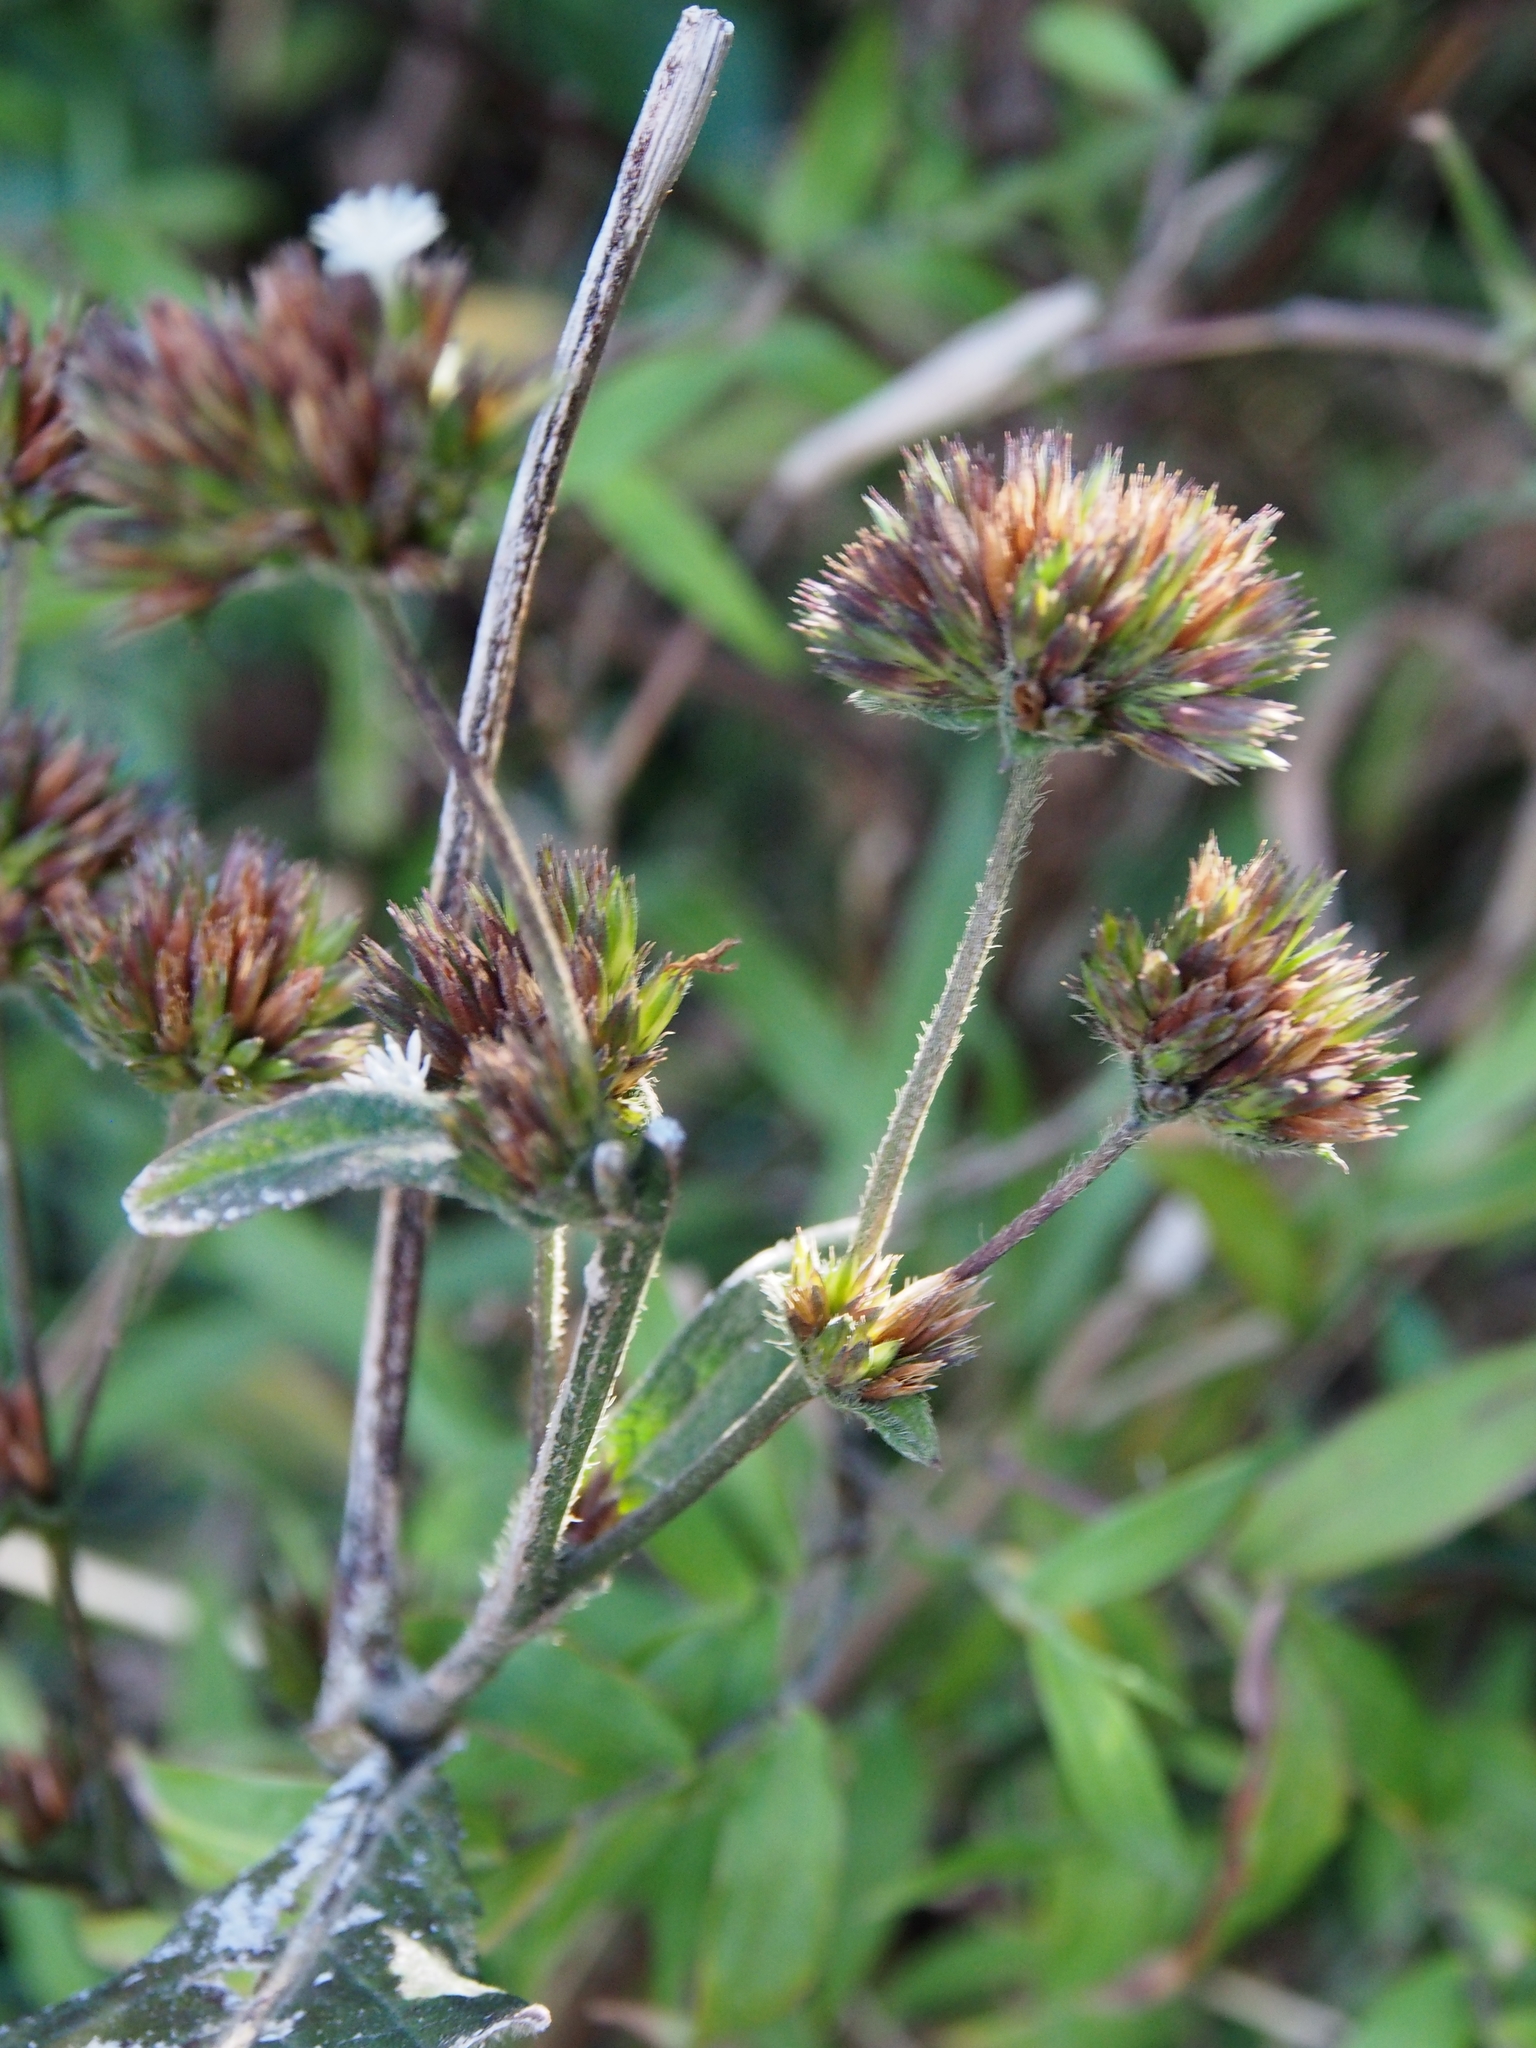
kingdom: Plantae
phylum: Tracheophyta
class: Magnoliopsida
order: Asterales
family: Asteraceae
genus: Elephantopus
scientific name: Elephantopus mollis
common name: Soft elephantsfoot
